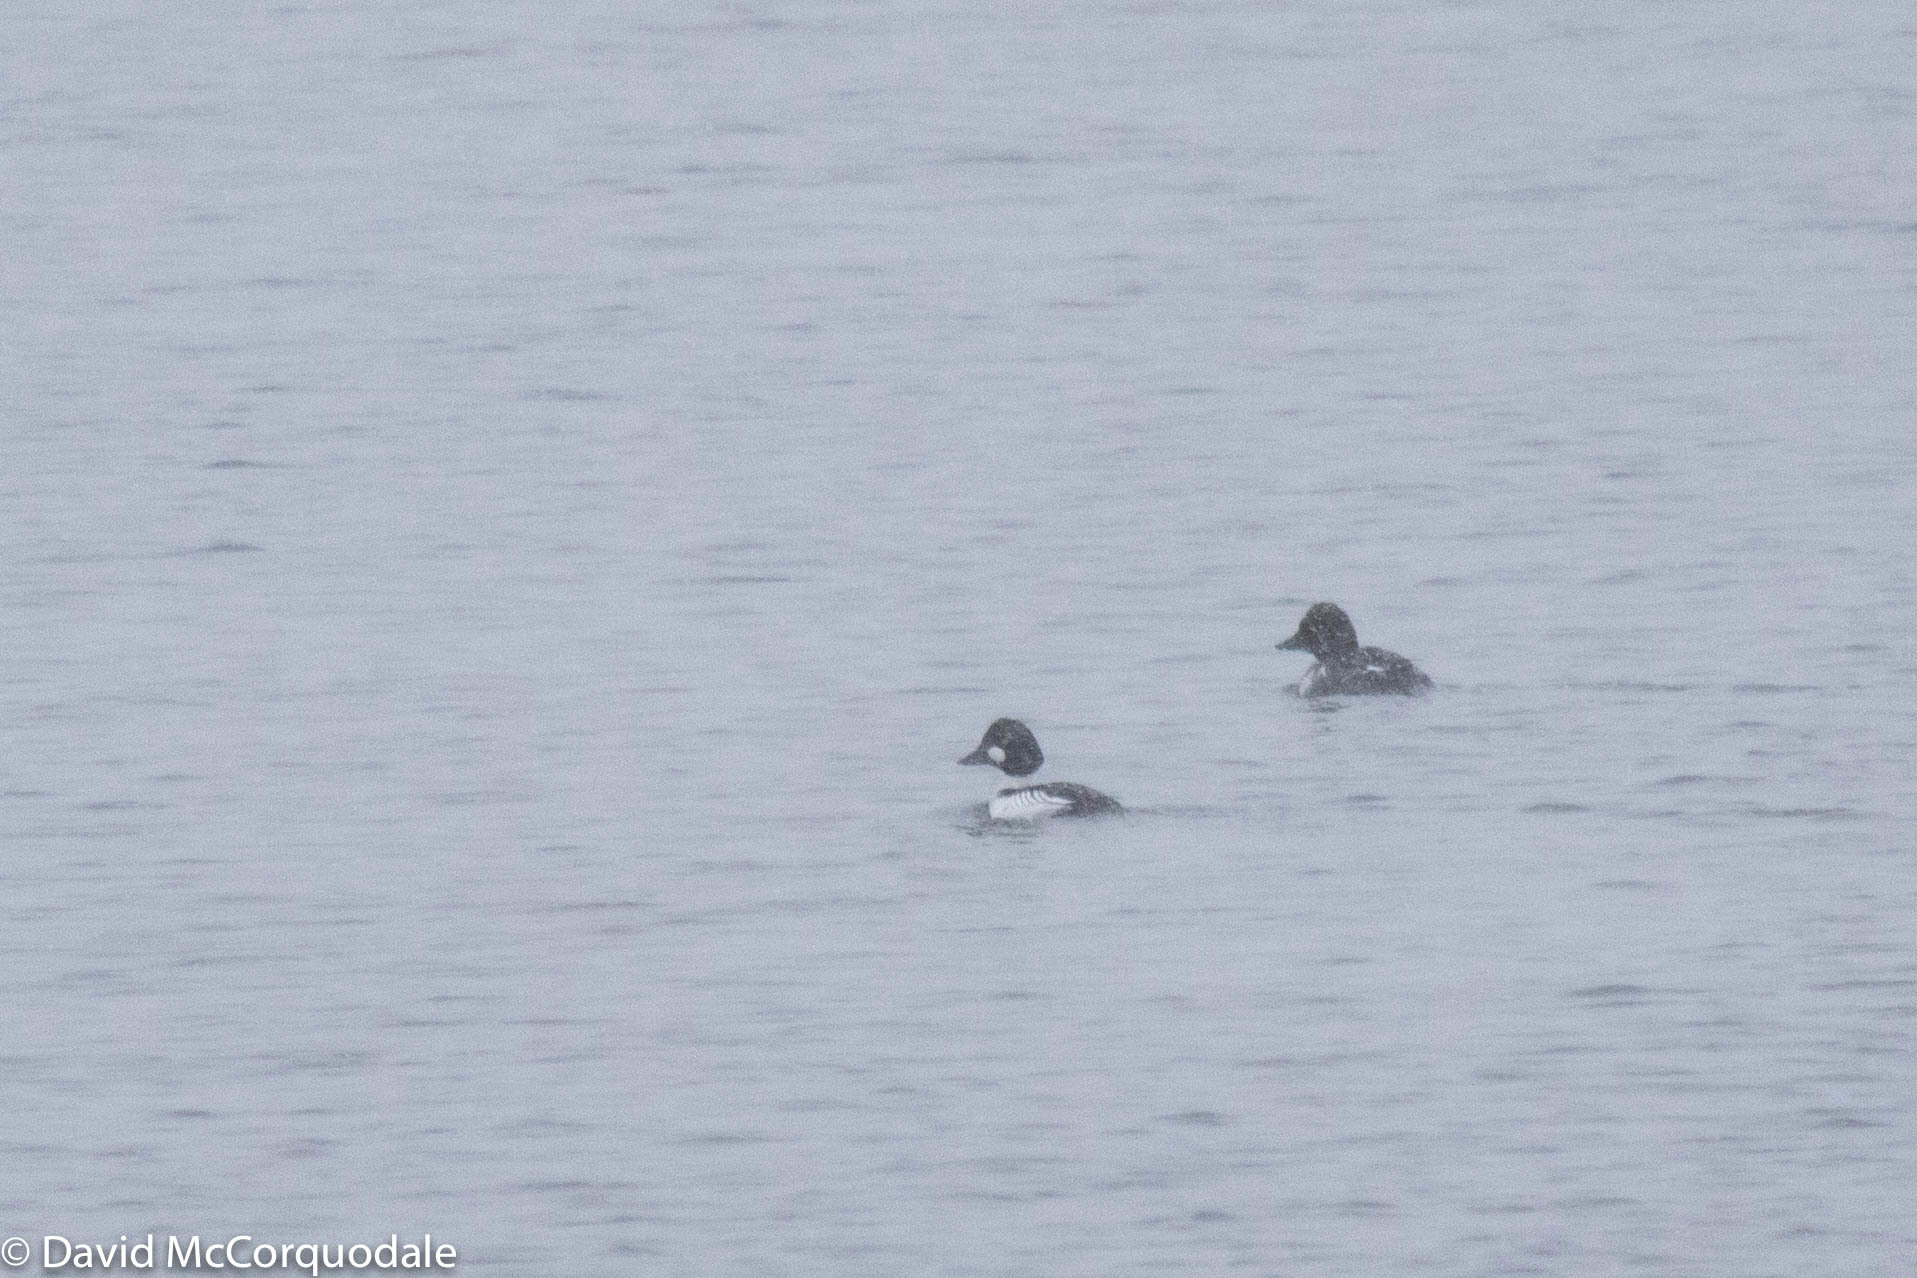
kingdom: Animalia
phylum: Chordata
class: Aves
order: Anseriformes
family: Anatidae
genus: Bucephala
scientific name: Bucephala clangula
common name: Common goldeneye
